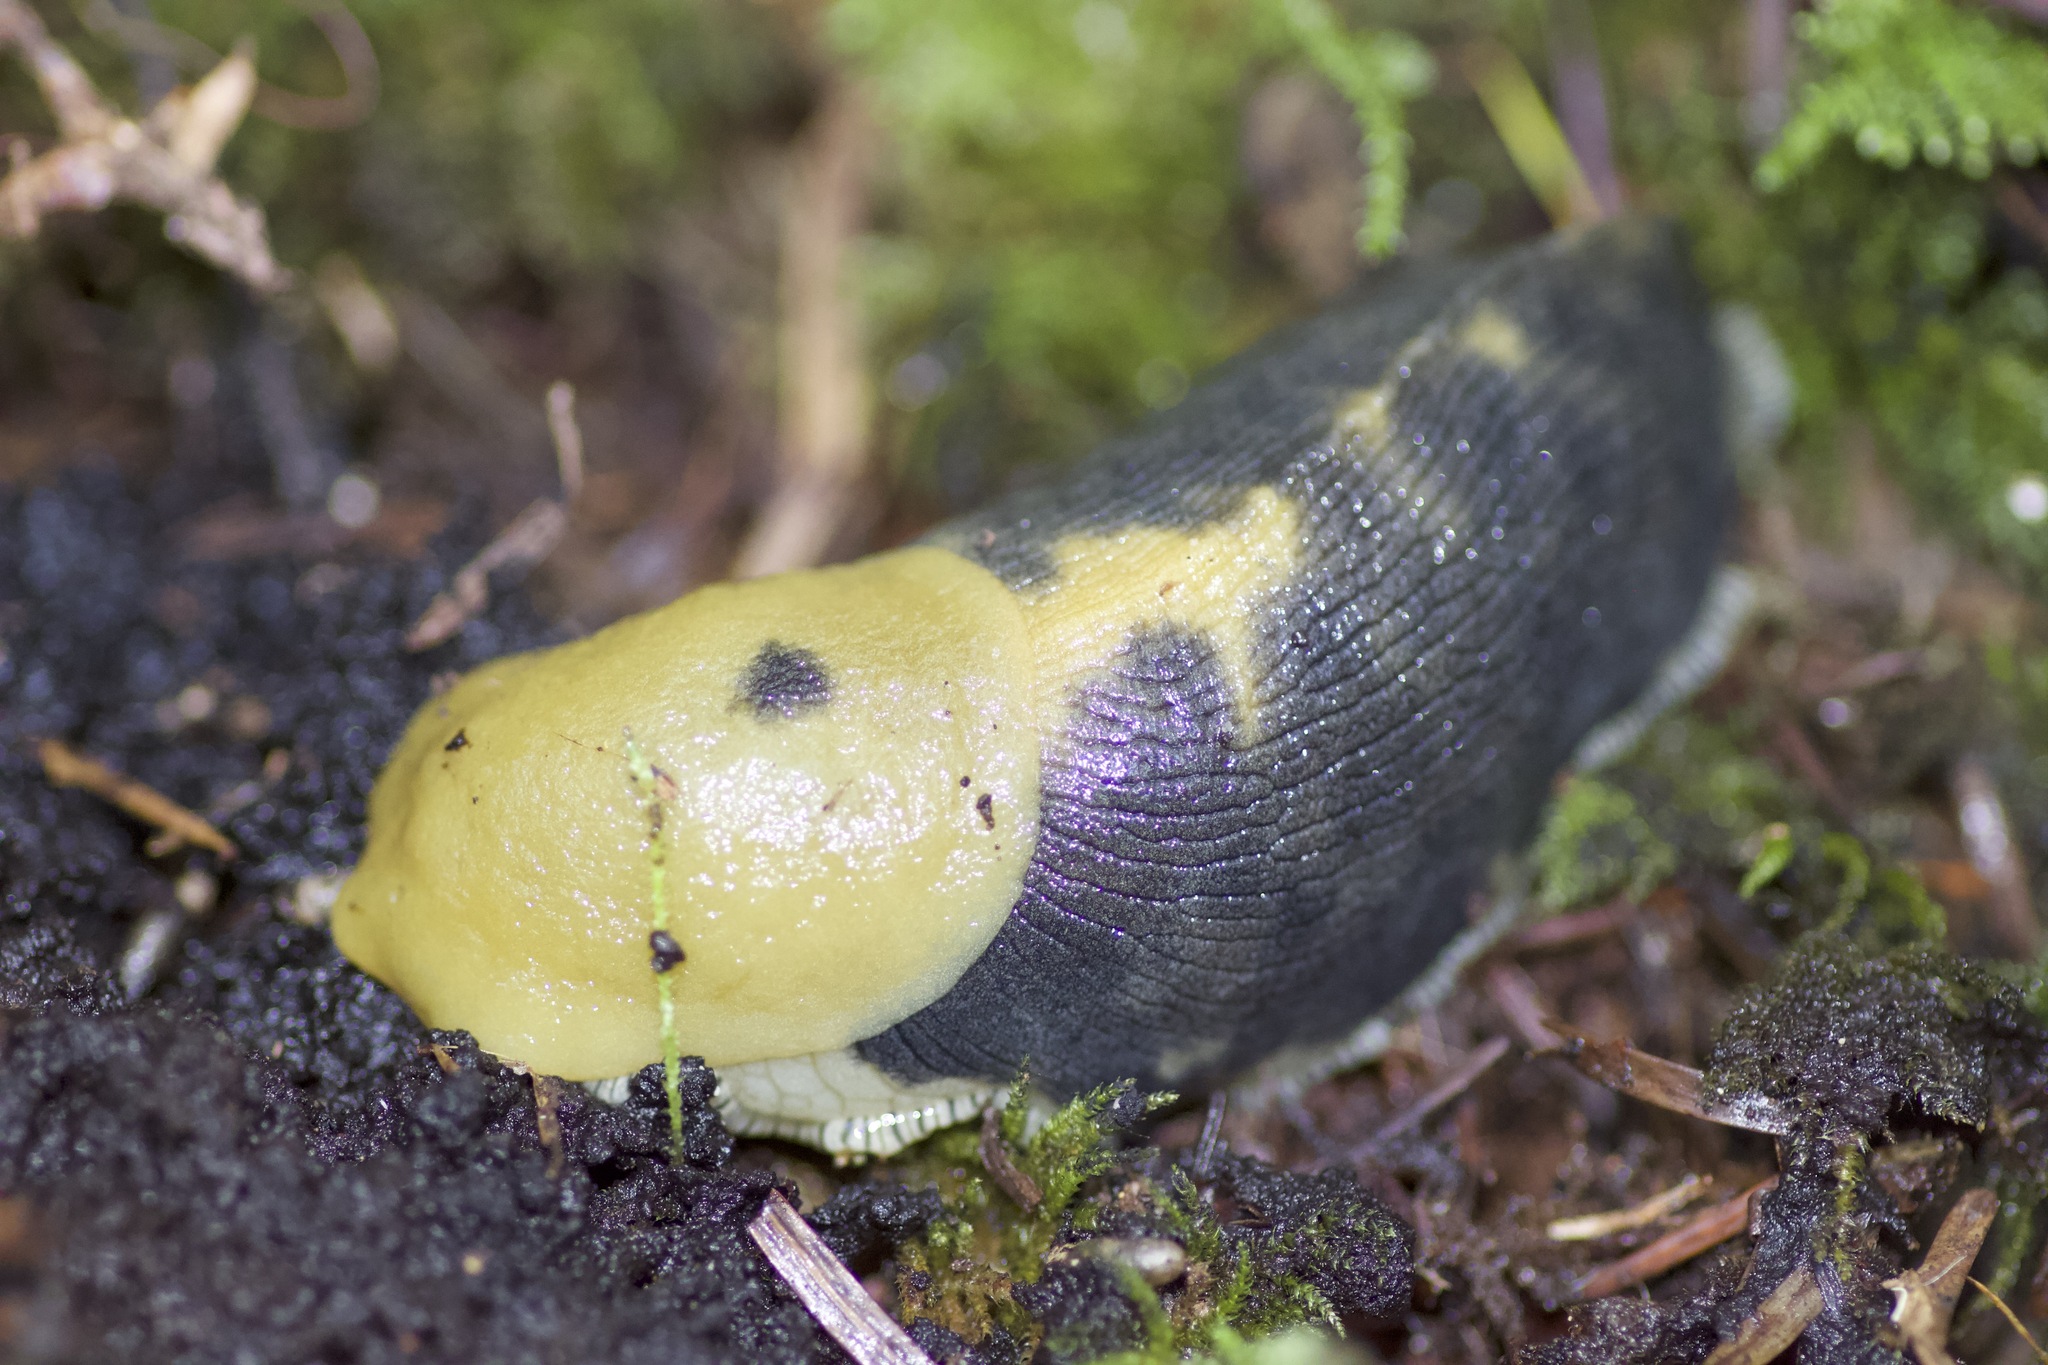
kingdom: Animalia
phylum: Mollusca
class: Gastropoda
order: Stylommatophora
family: Ariolimacidae
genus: Ariolimax
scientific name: Ariolimax buttoni
